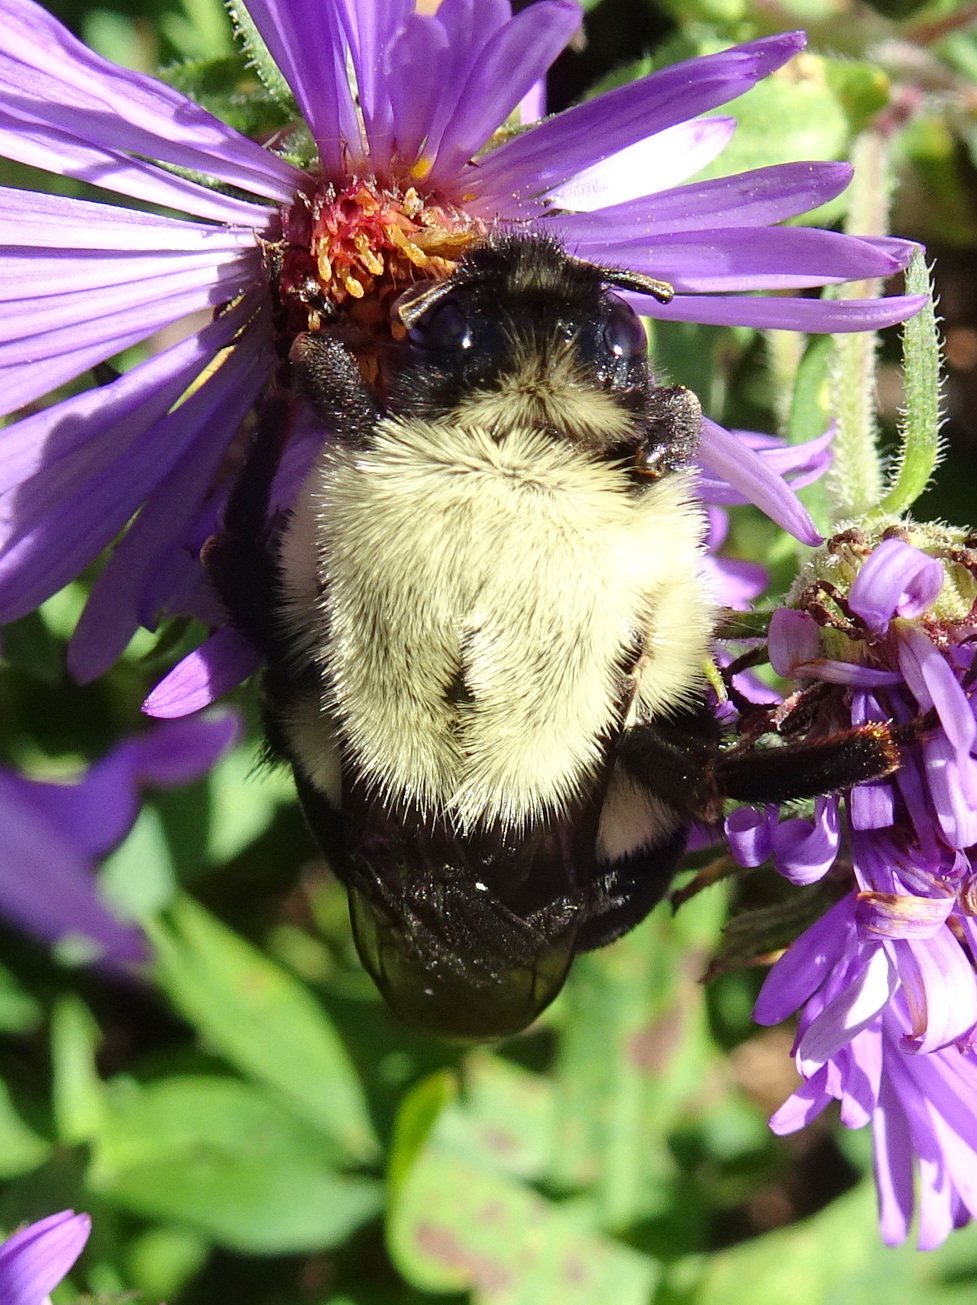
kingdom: Animalia
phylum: Arthropoda
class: Insecta
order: Hymenoptera
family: Apidae
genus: Bombus
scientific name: Bombus impatiens
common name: Common eastern bumble bee
